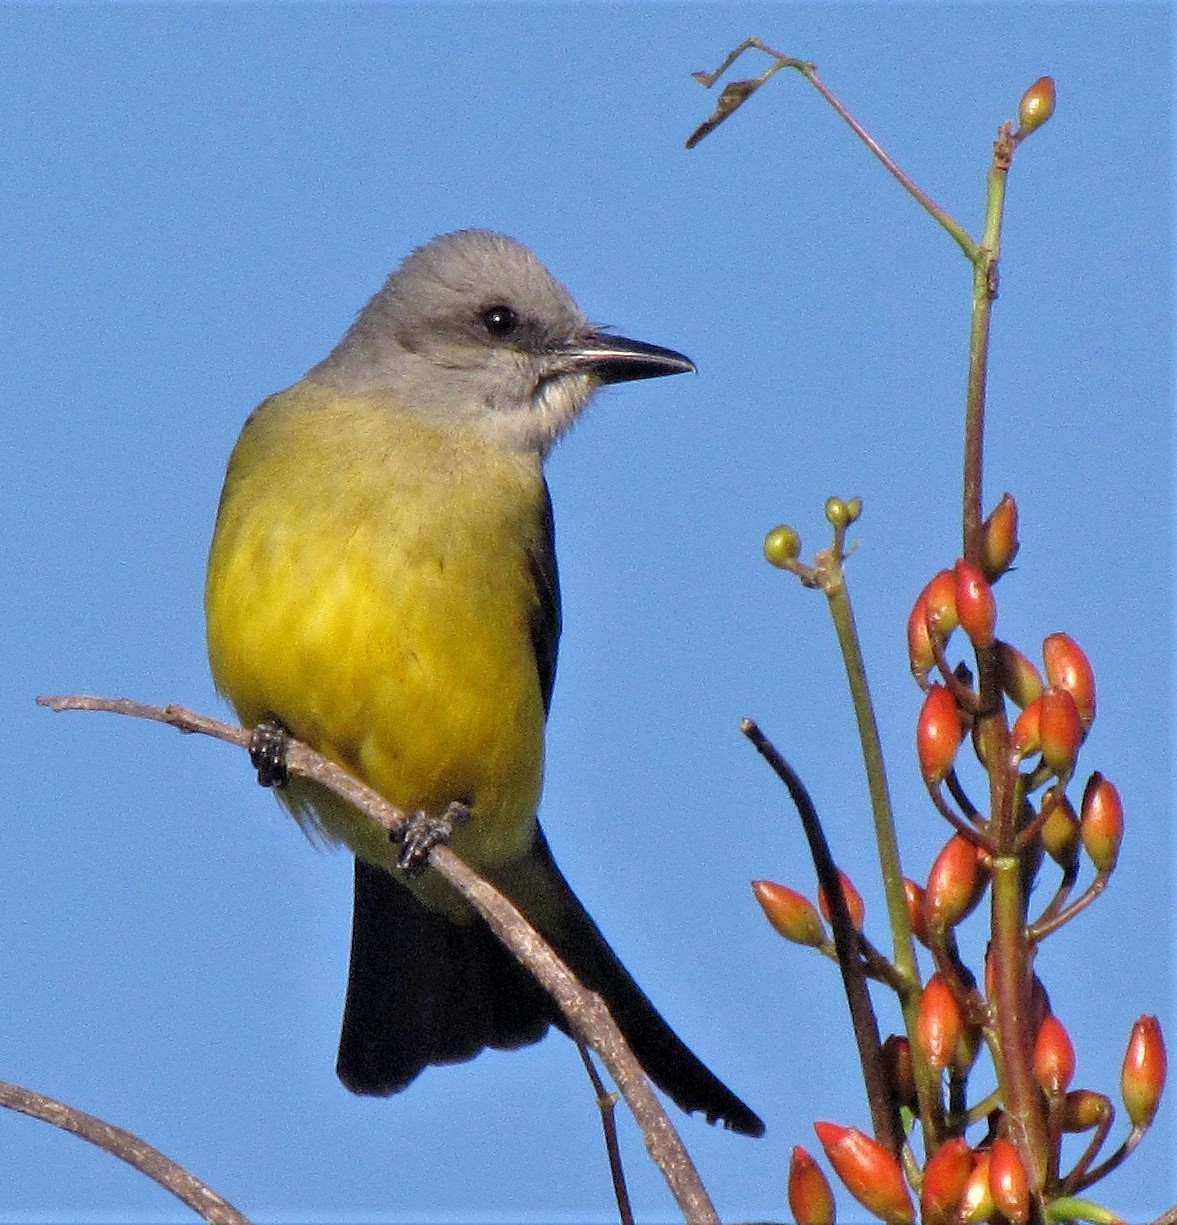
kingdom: Animalia
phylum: Chordata
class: Aves
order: Passeriformes
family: Tyrannidae
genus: Tyrannus
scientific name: Tyrannus melancholicus
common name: Tropical kingbird
